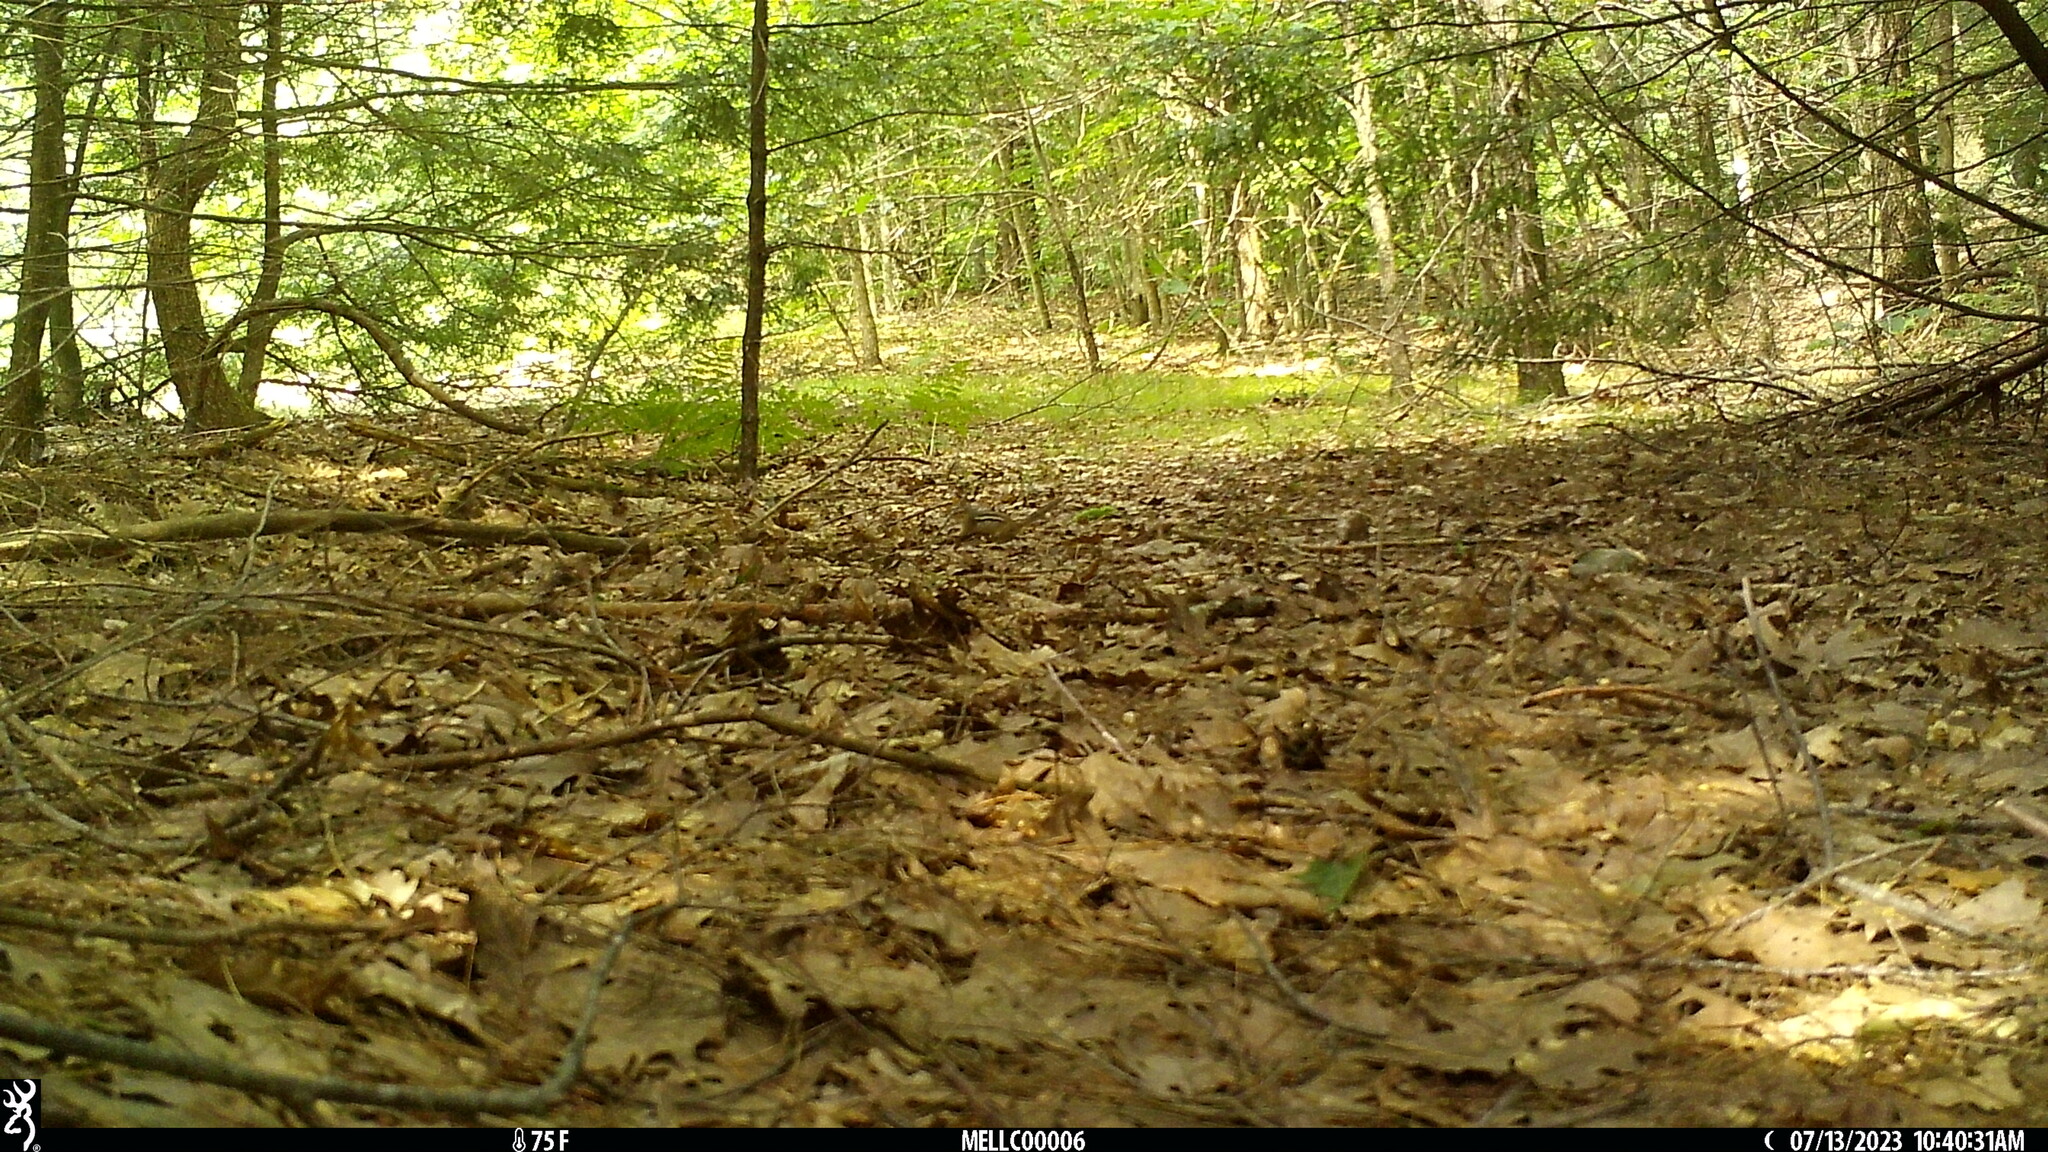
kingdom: Animalia
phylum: Chordata
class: Mammalia
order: Rodentia
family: Sciuridae
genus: Tamias
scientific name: Tamias striatus
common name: Eastern chipmunk
